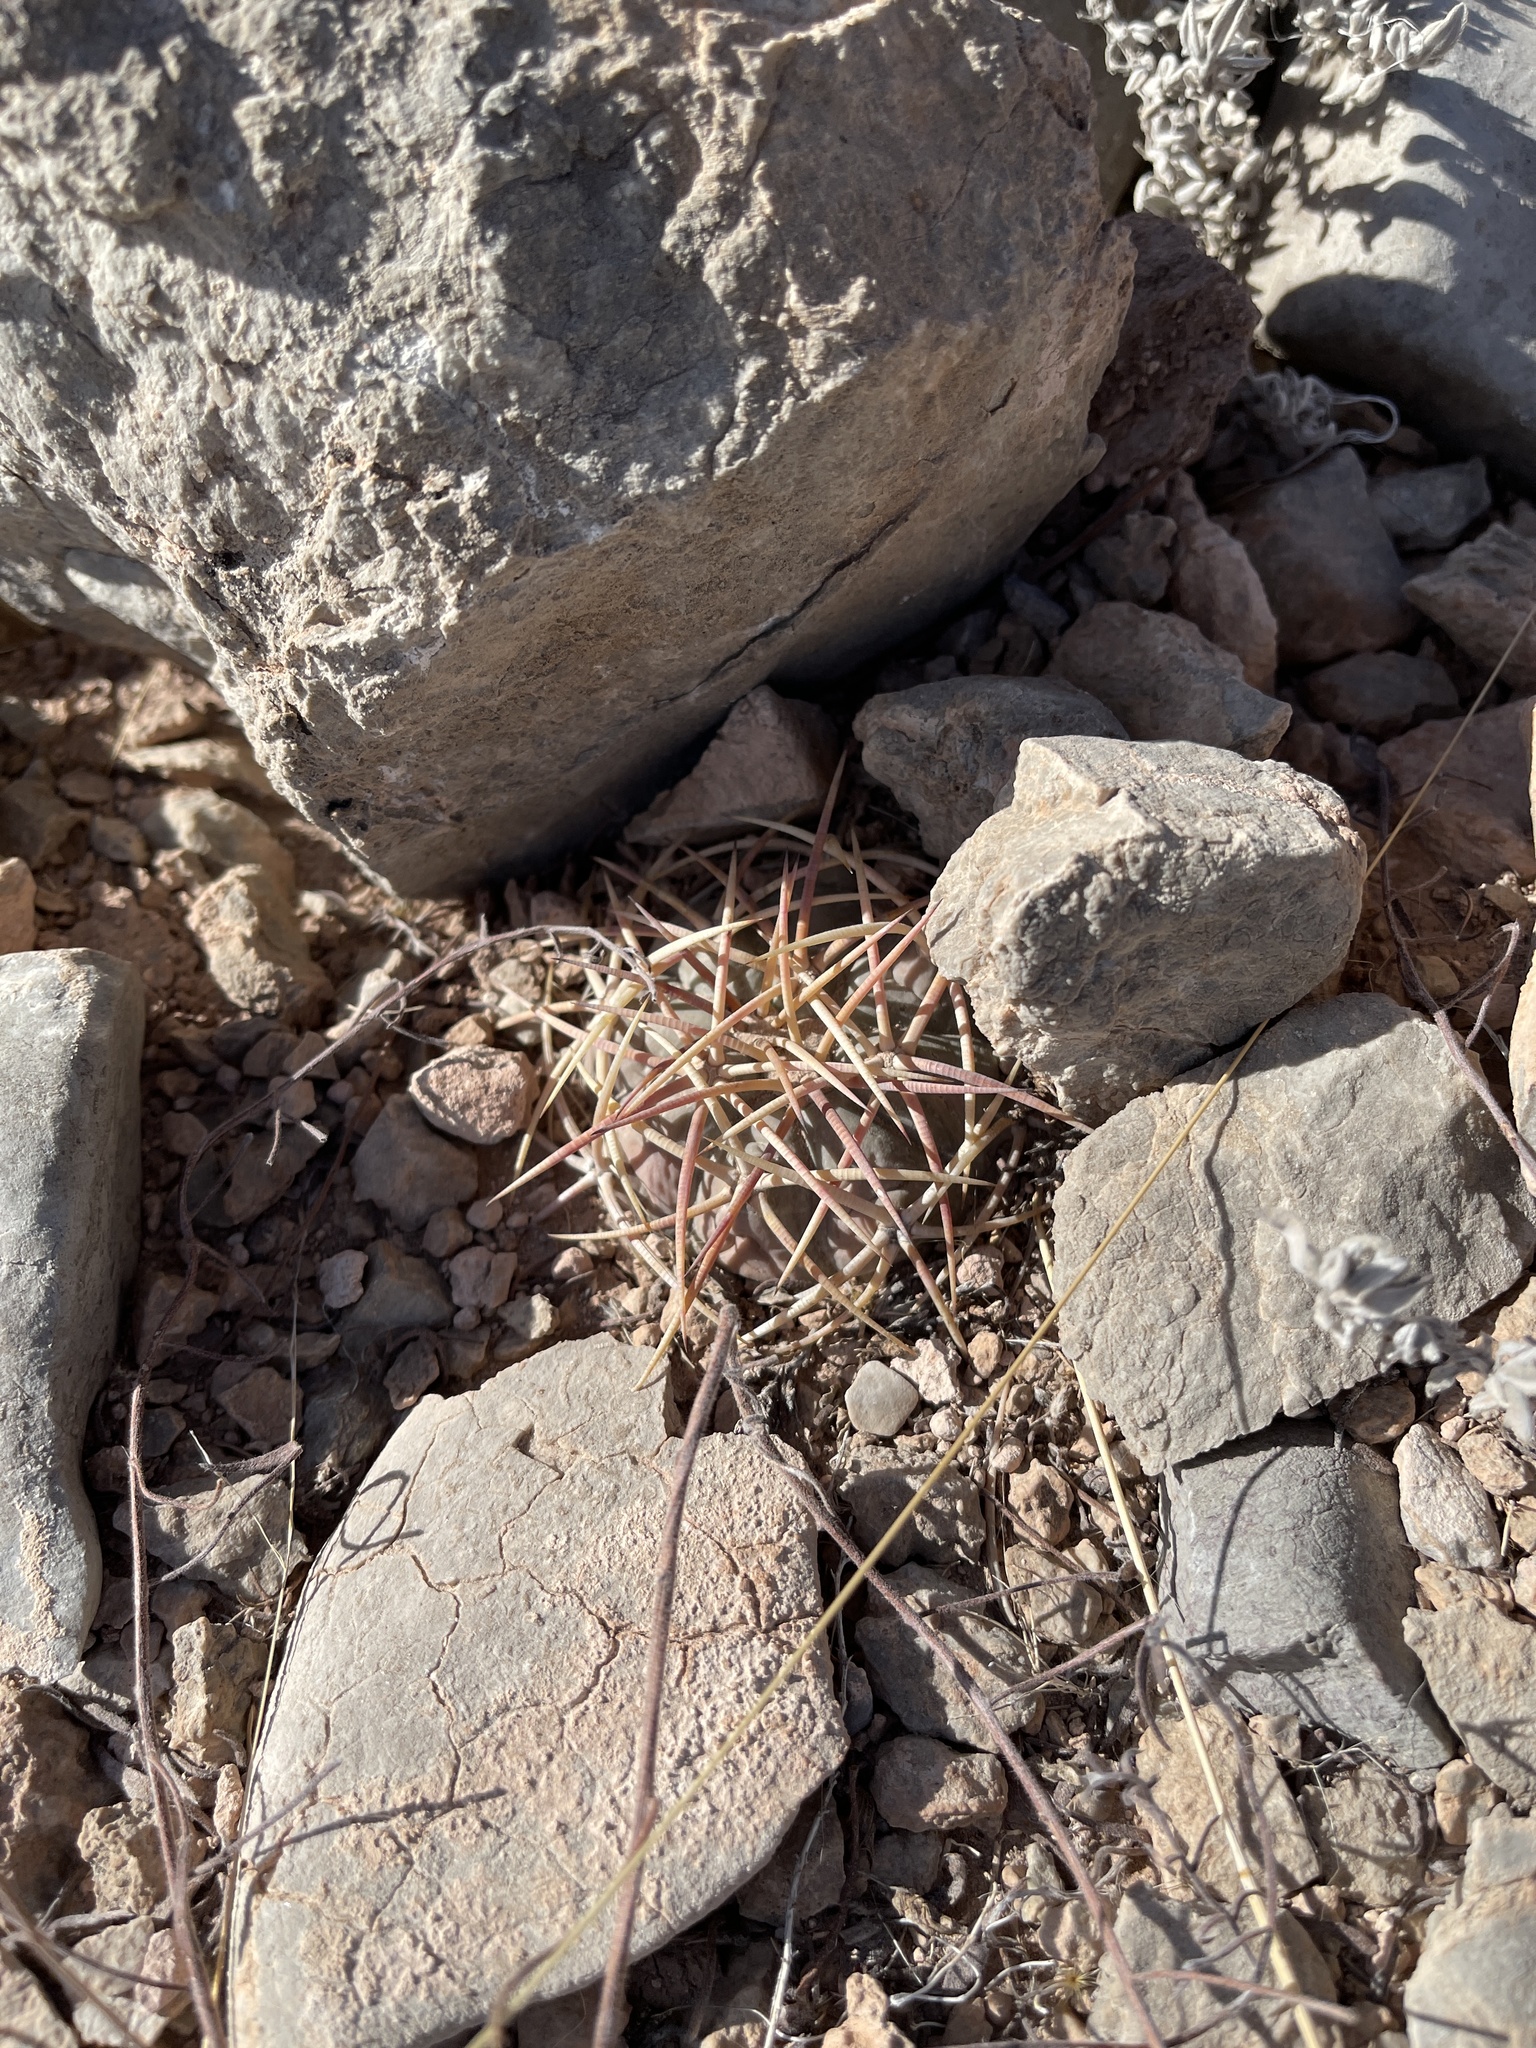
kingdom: Plantae
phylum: Tracheophyta
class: Magnoliopsida
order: Caryophyllales
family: Cactaceae
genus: Echinocactus
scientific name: Echinocactus horizonthalonius
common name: Devilshead
